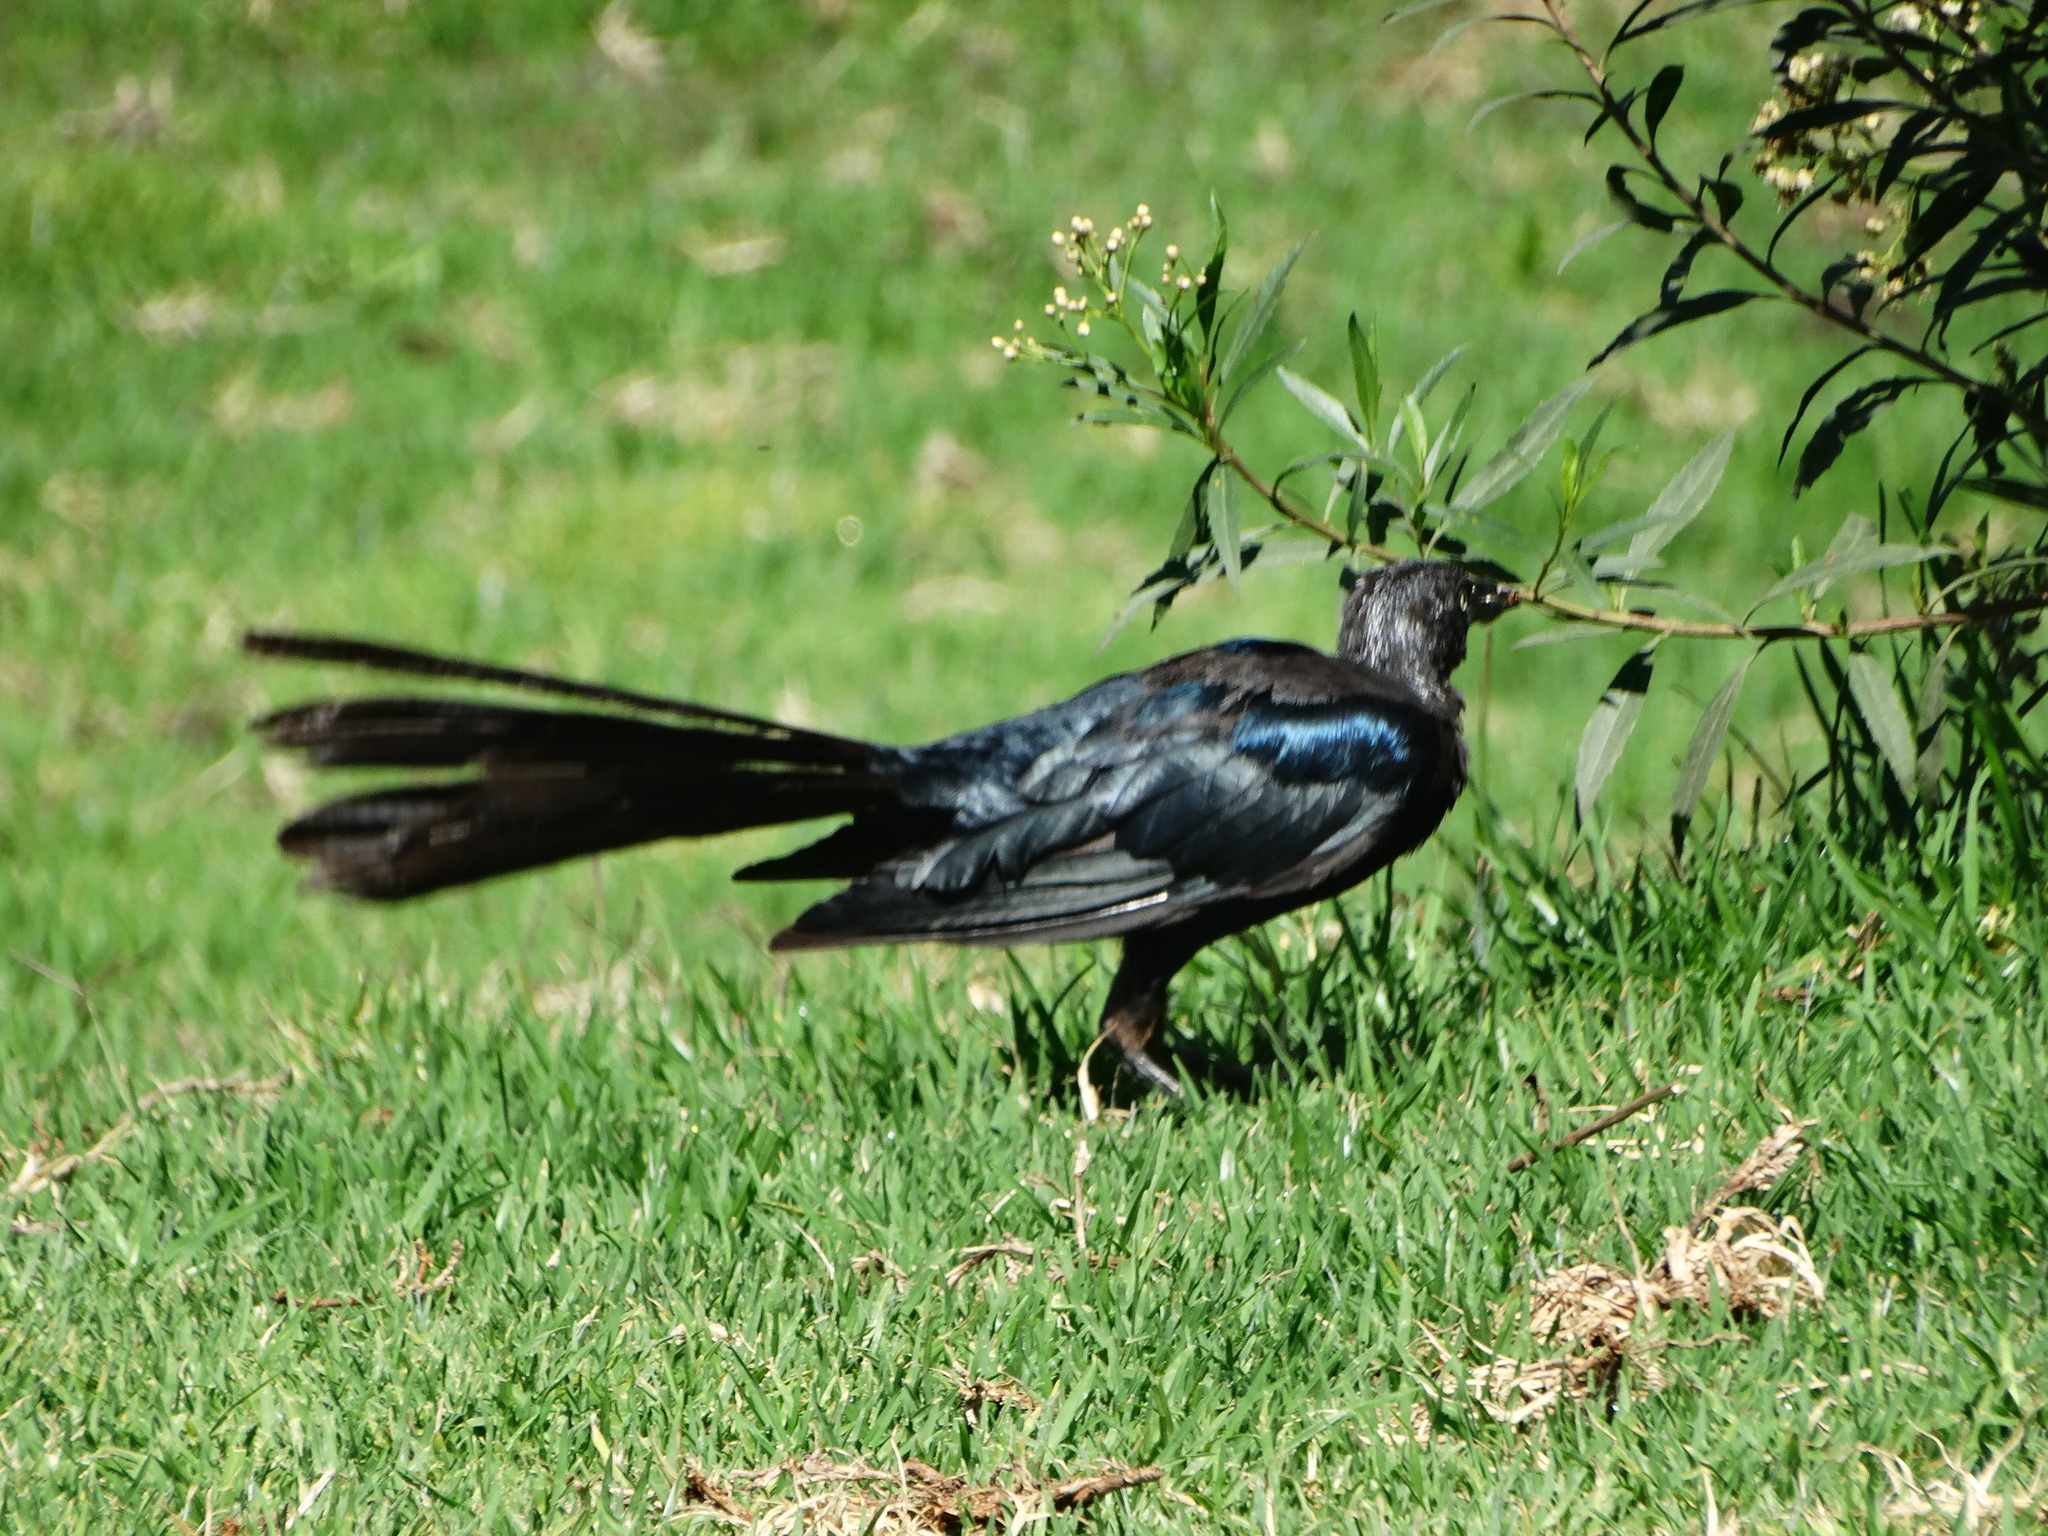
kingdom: Animalia
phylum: Chordata
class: Aves
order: Passeriformes
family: Icteridae
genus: Quiscalus
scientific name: Quiscalus mexicanus
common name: Great-tailed grackle
